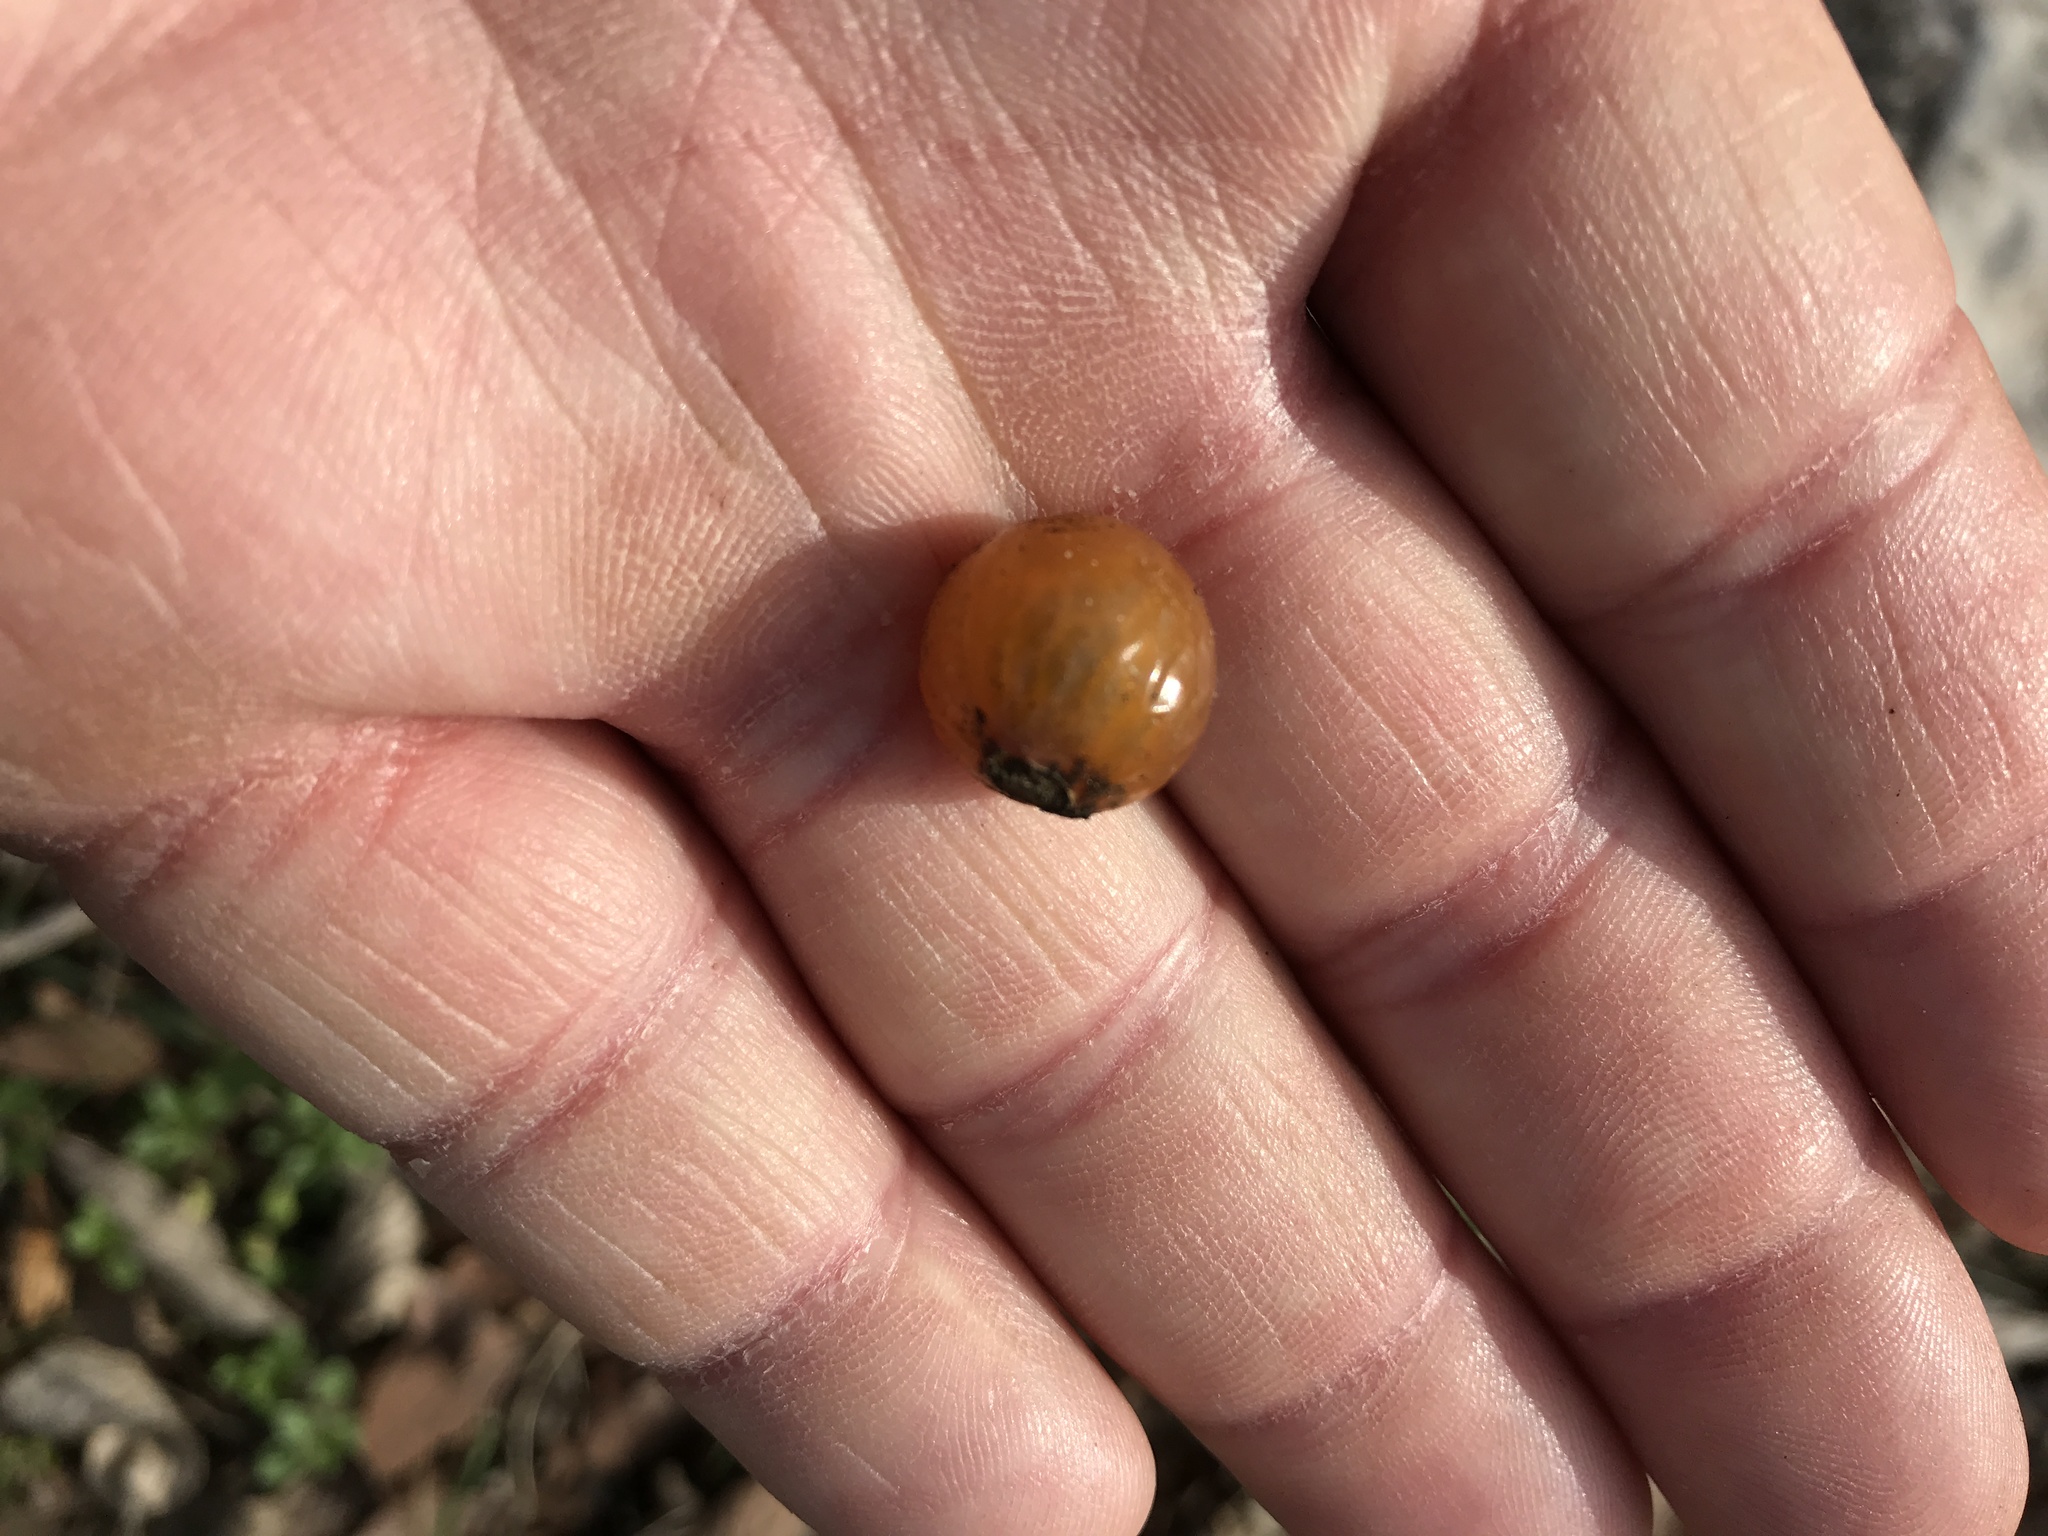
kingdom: Plantae
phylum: Tracheophyta
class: Magnoliopsida
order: Sapindales
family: Sapindaceae
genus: Sapindus
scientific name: Sapindus drummondii
